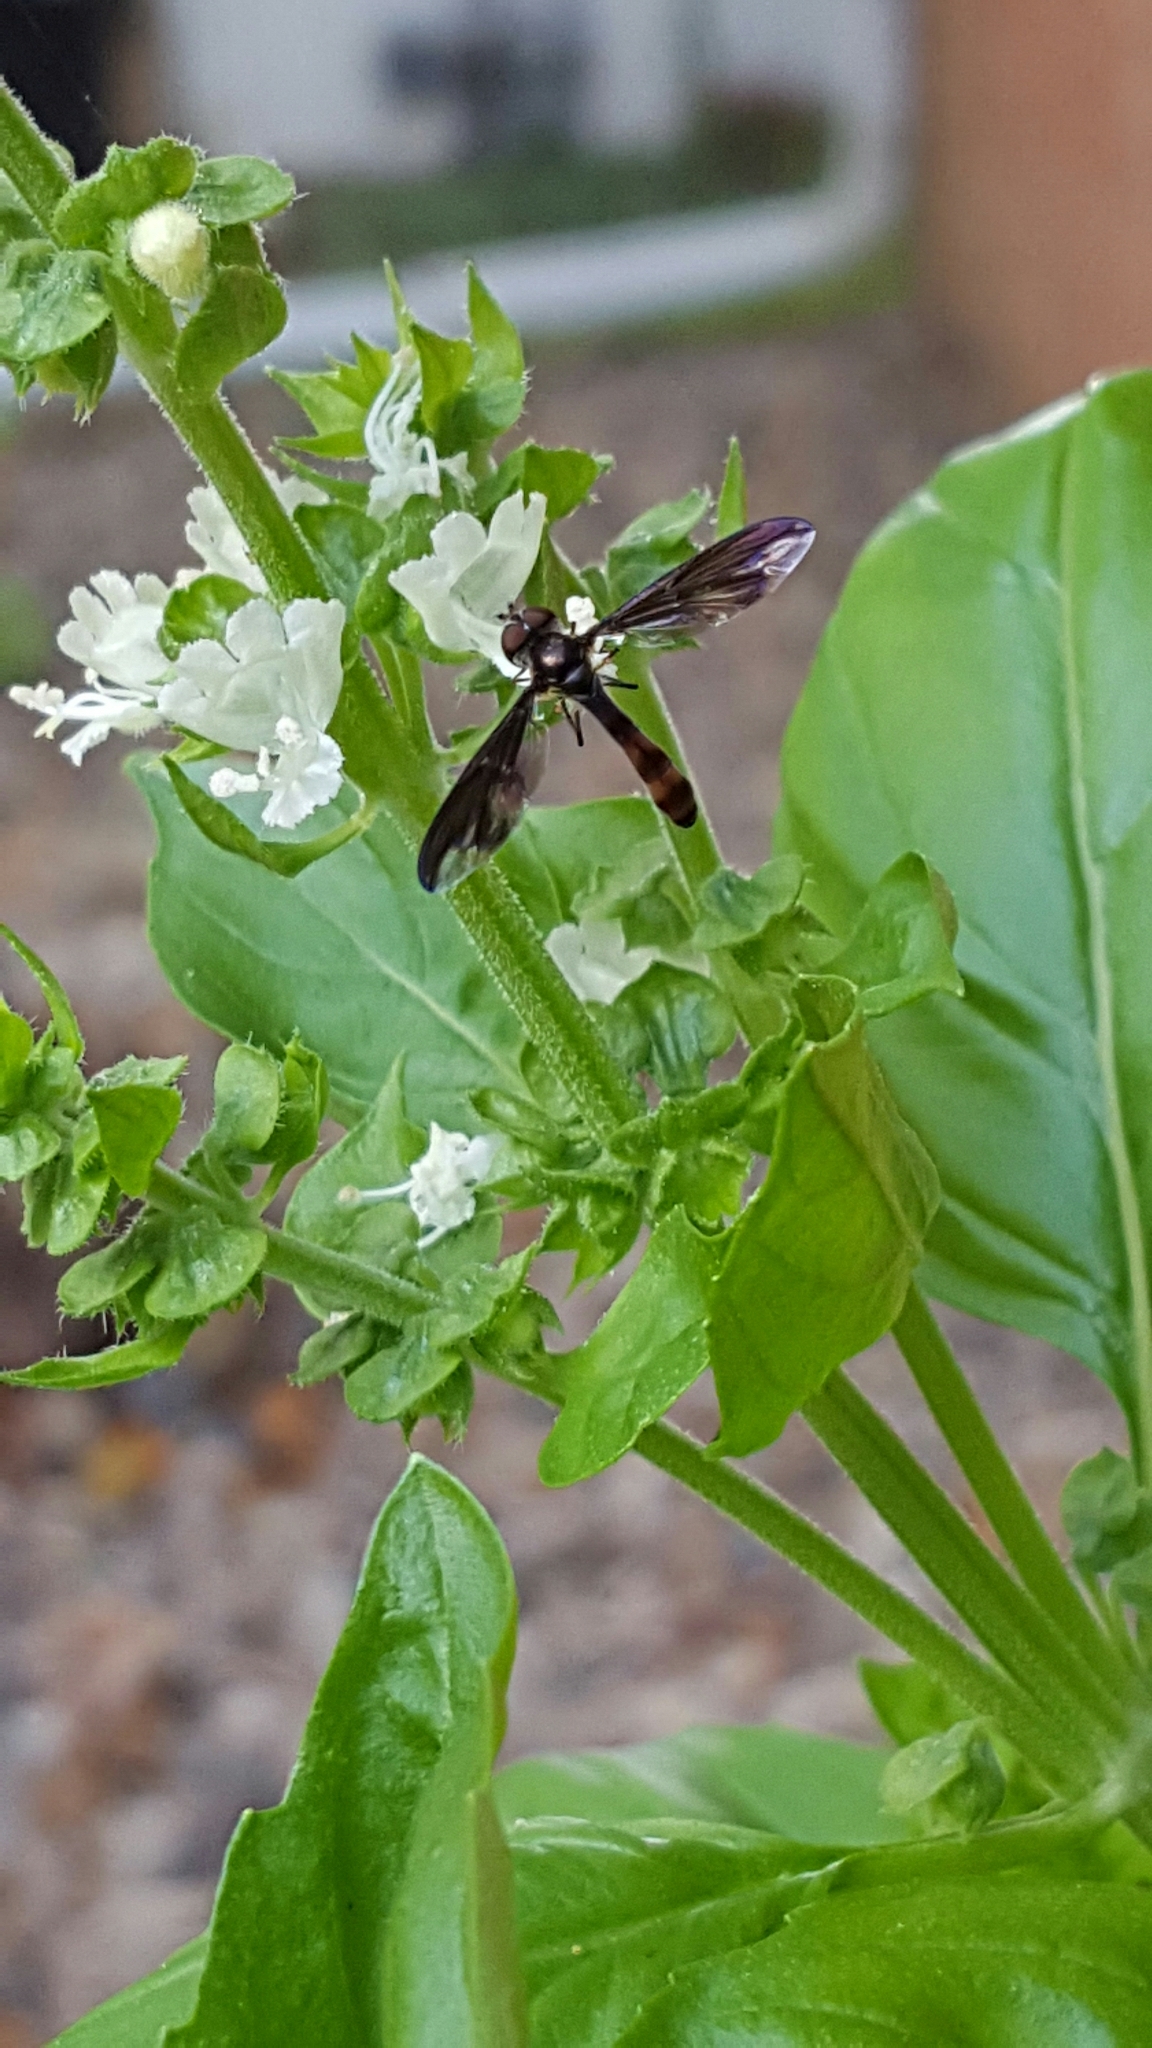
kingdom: Animalia
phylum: Arthropoda
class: Insecta
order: Diptera
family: Syrphidae
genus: Ocyptamus
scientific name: Ocyptamus fuscipennis
